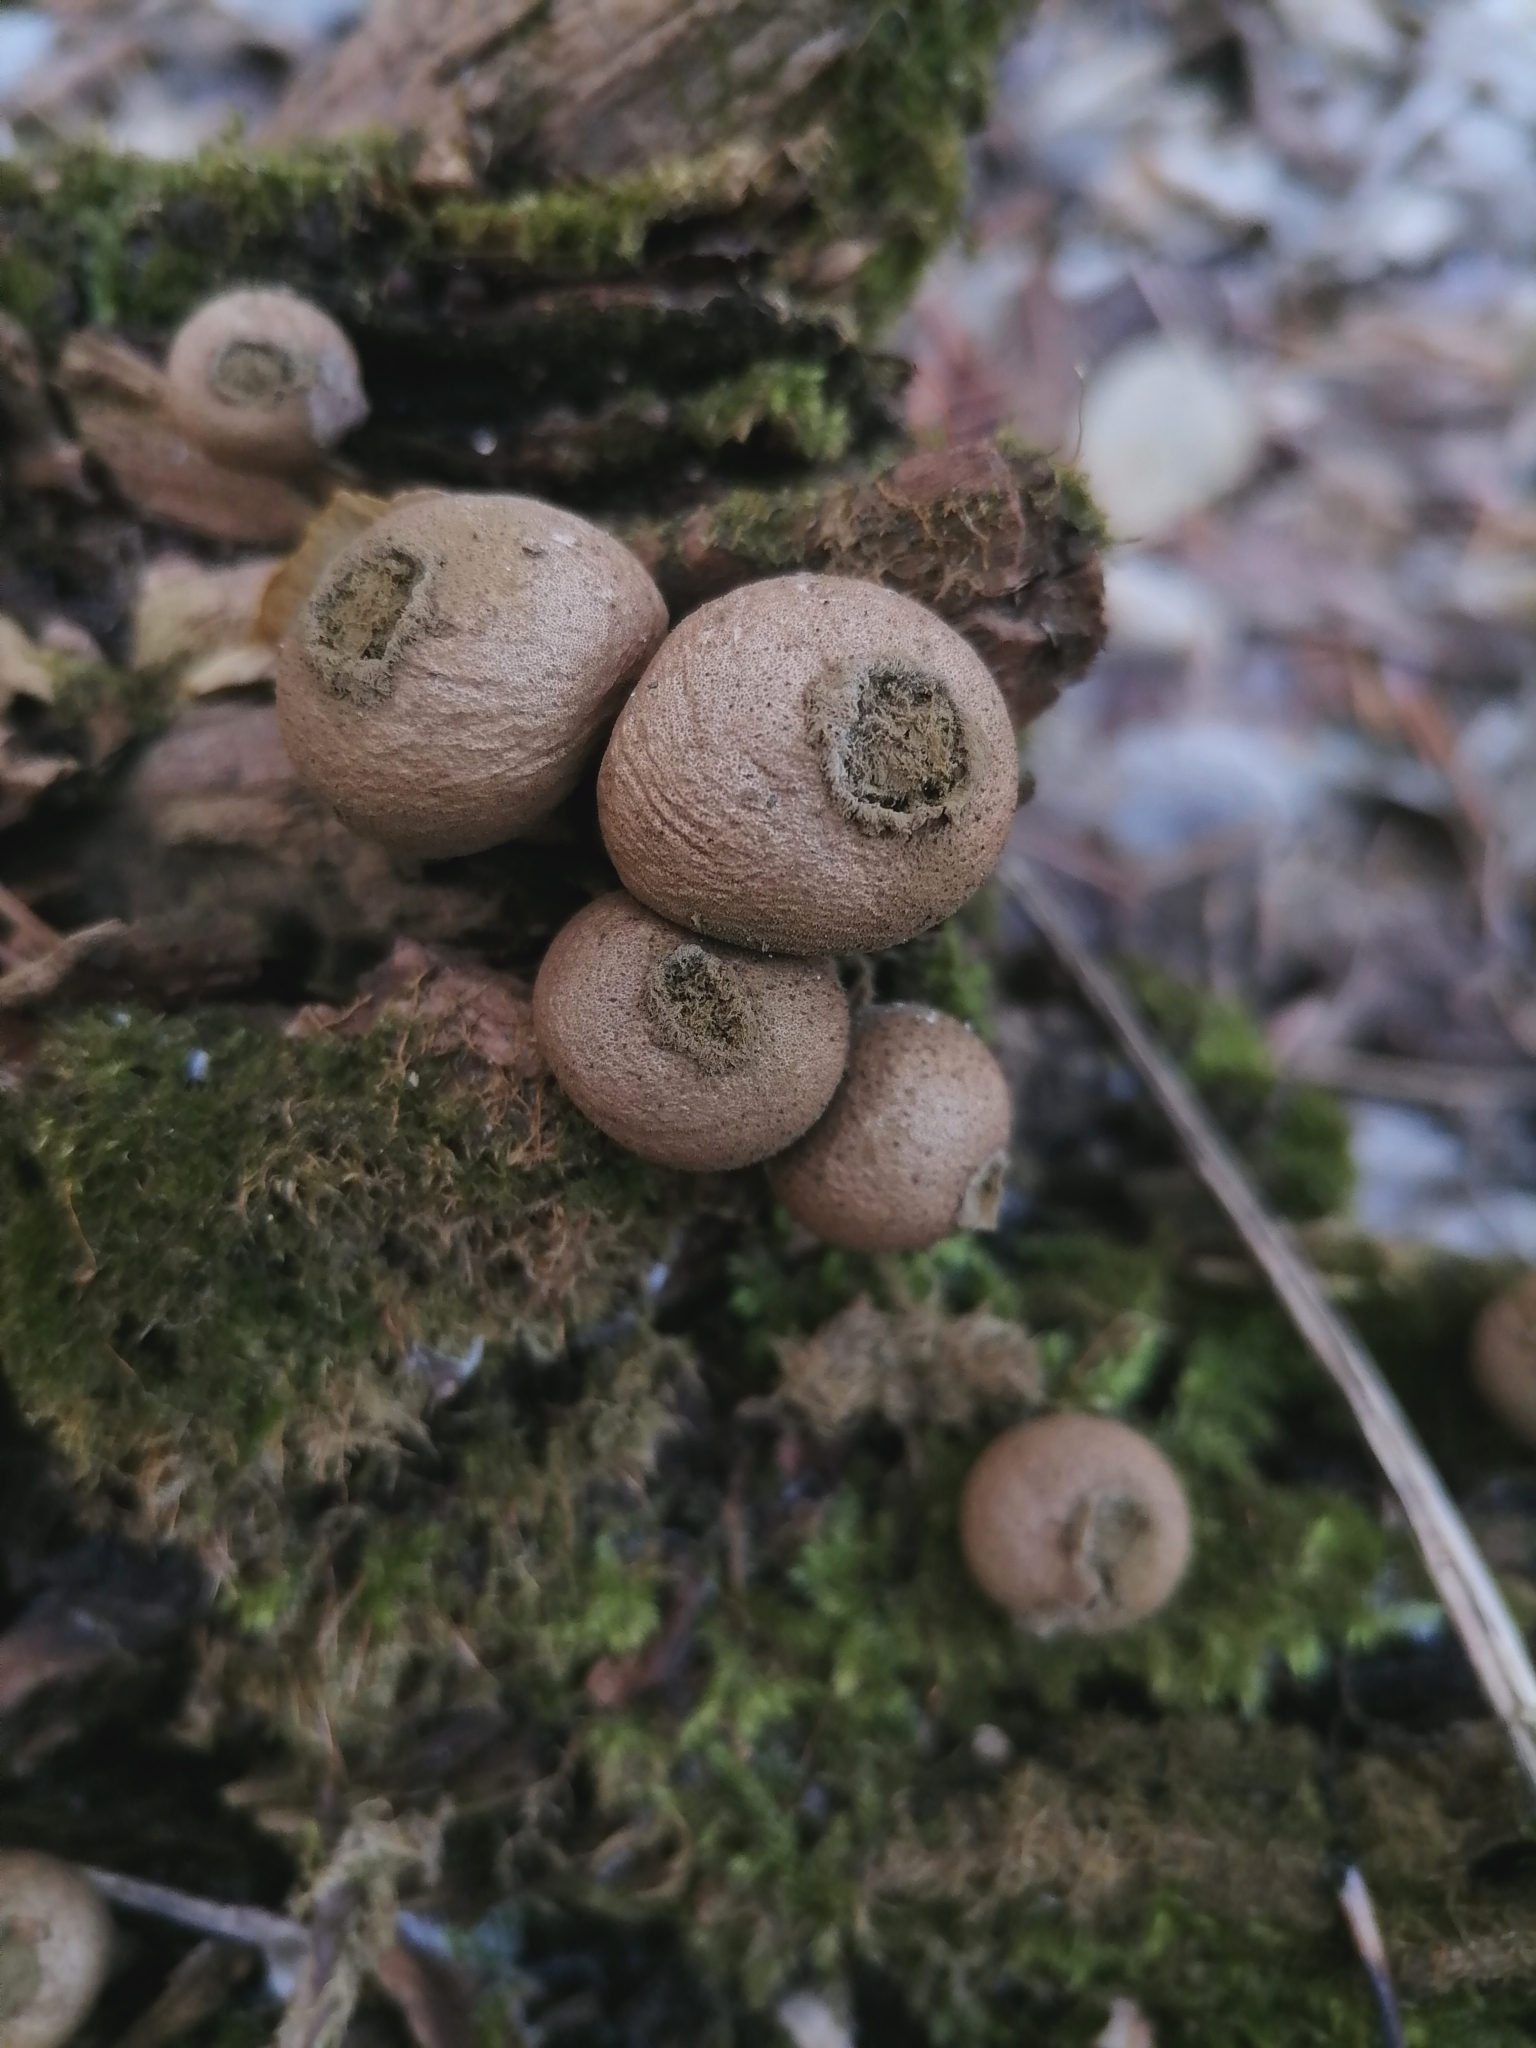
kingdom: Fungi
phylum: Basidiomycota
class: Agaricomycetes
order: Agaricales
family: Lycoperdaceae
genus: Apioperdon
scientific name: Apioperdon pyriforme
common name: Pear-shaped puffball
